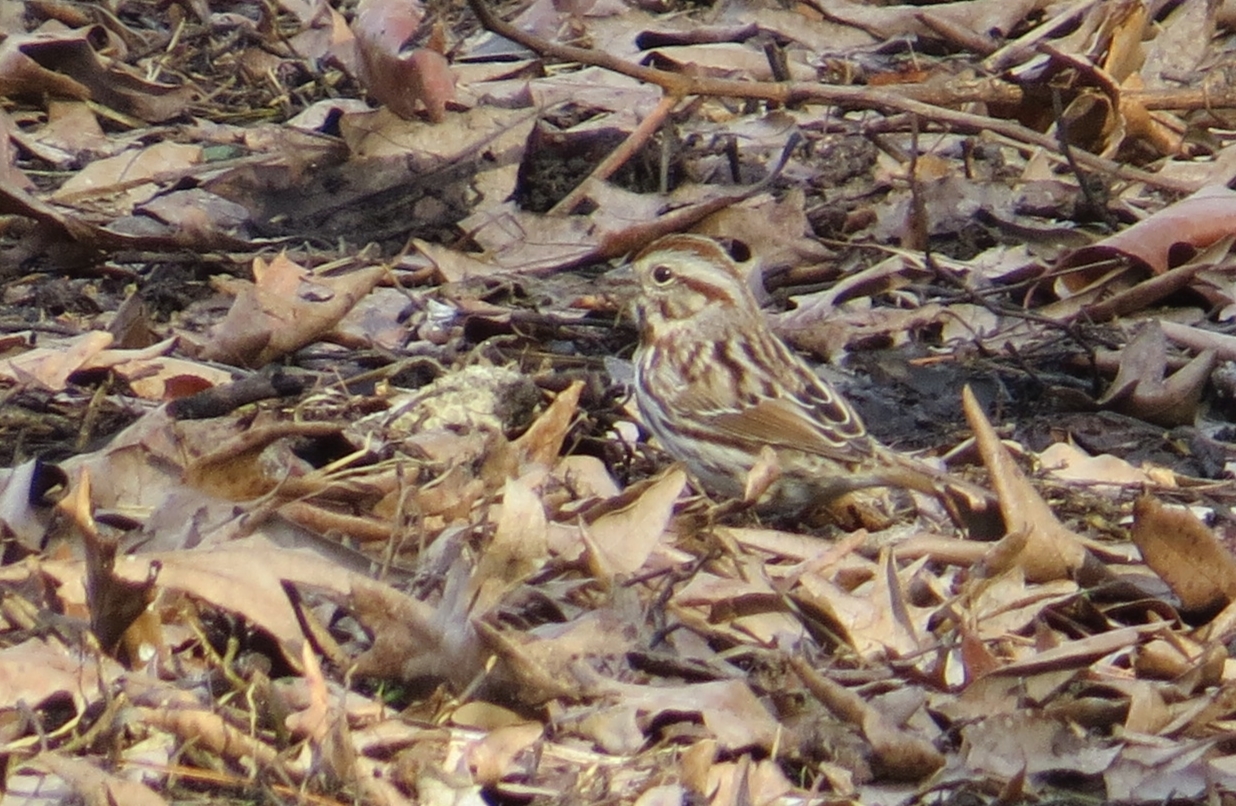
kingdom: Animalia
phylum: Chordata
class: Aves
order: Passeriformes
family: Passerellidae
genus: Melospiza
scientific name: Melospiza melodia
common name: Song sparrow
